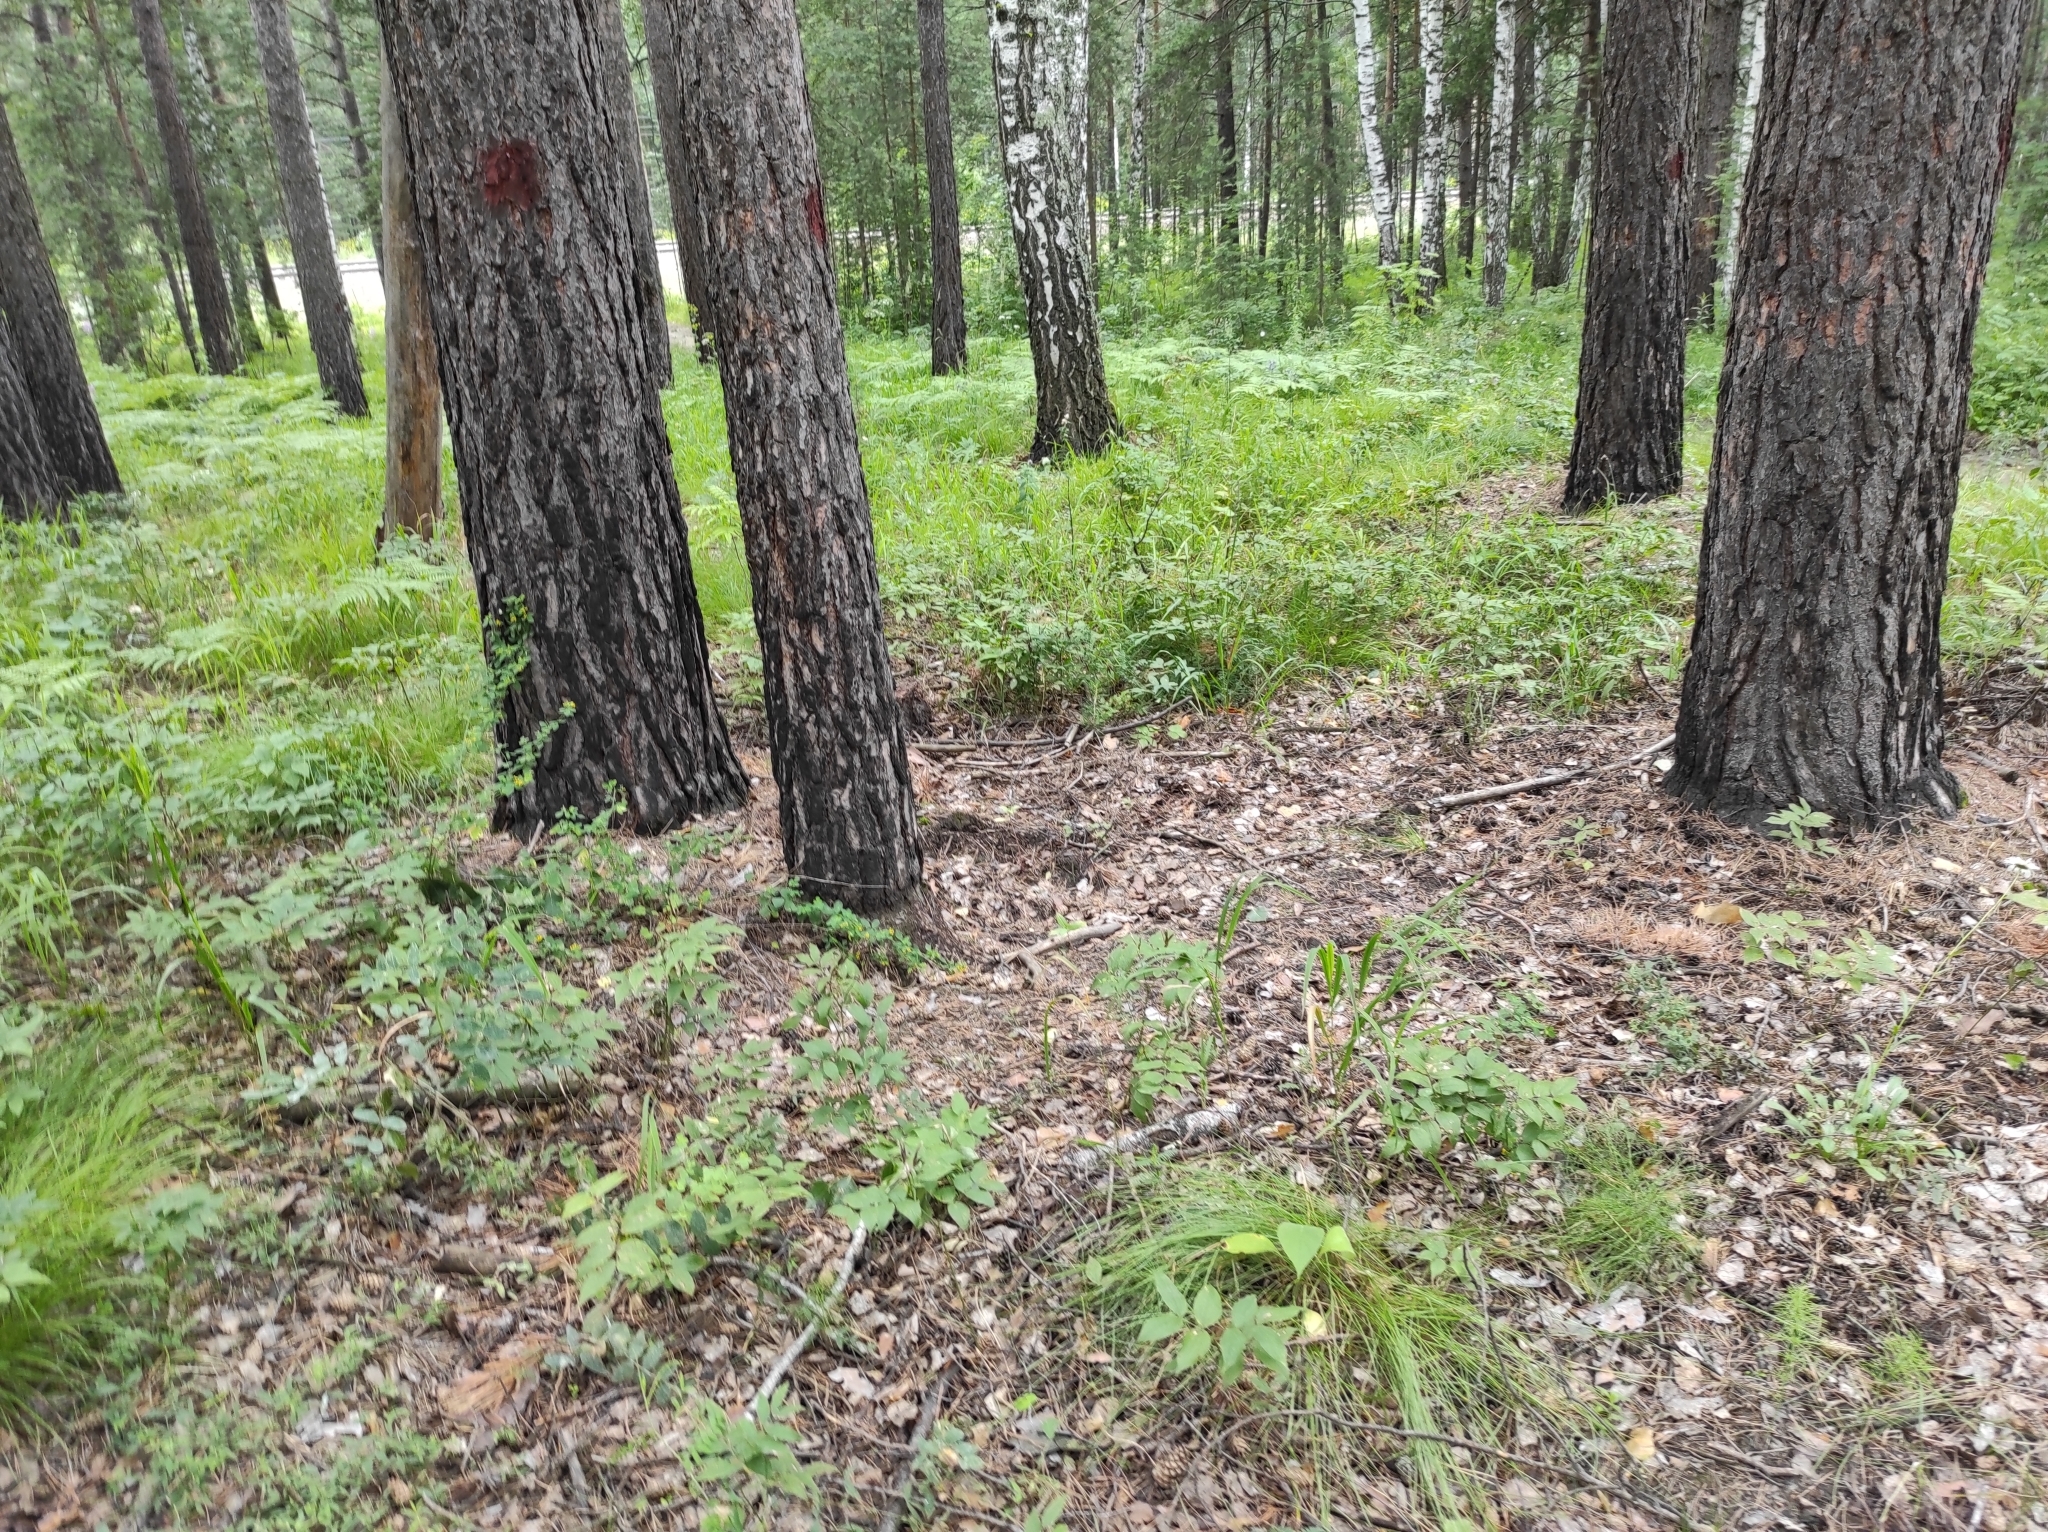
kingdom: Plantae
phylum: Tracheophyta
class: Pinopsida
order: Pinales
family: Pinaceae
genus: Pinus
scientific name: Pinus sylvestris
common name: Scots pine
